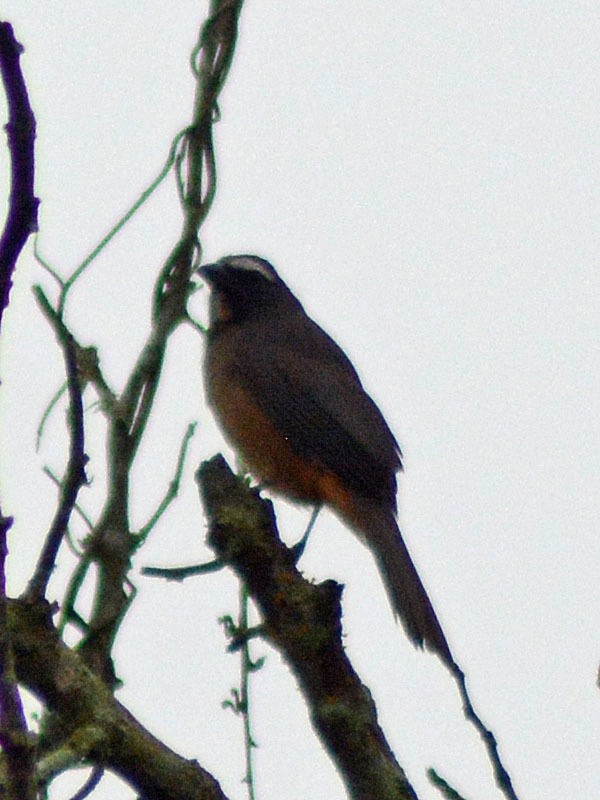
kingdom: Animalia
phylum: Chordata
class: Aves
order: Passeriformes
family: Thraupidae
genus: Saltator
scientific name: Saltator grandis
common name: Cinnamon-bellied saltator
